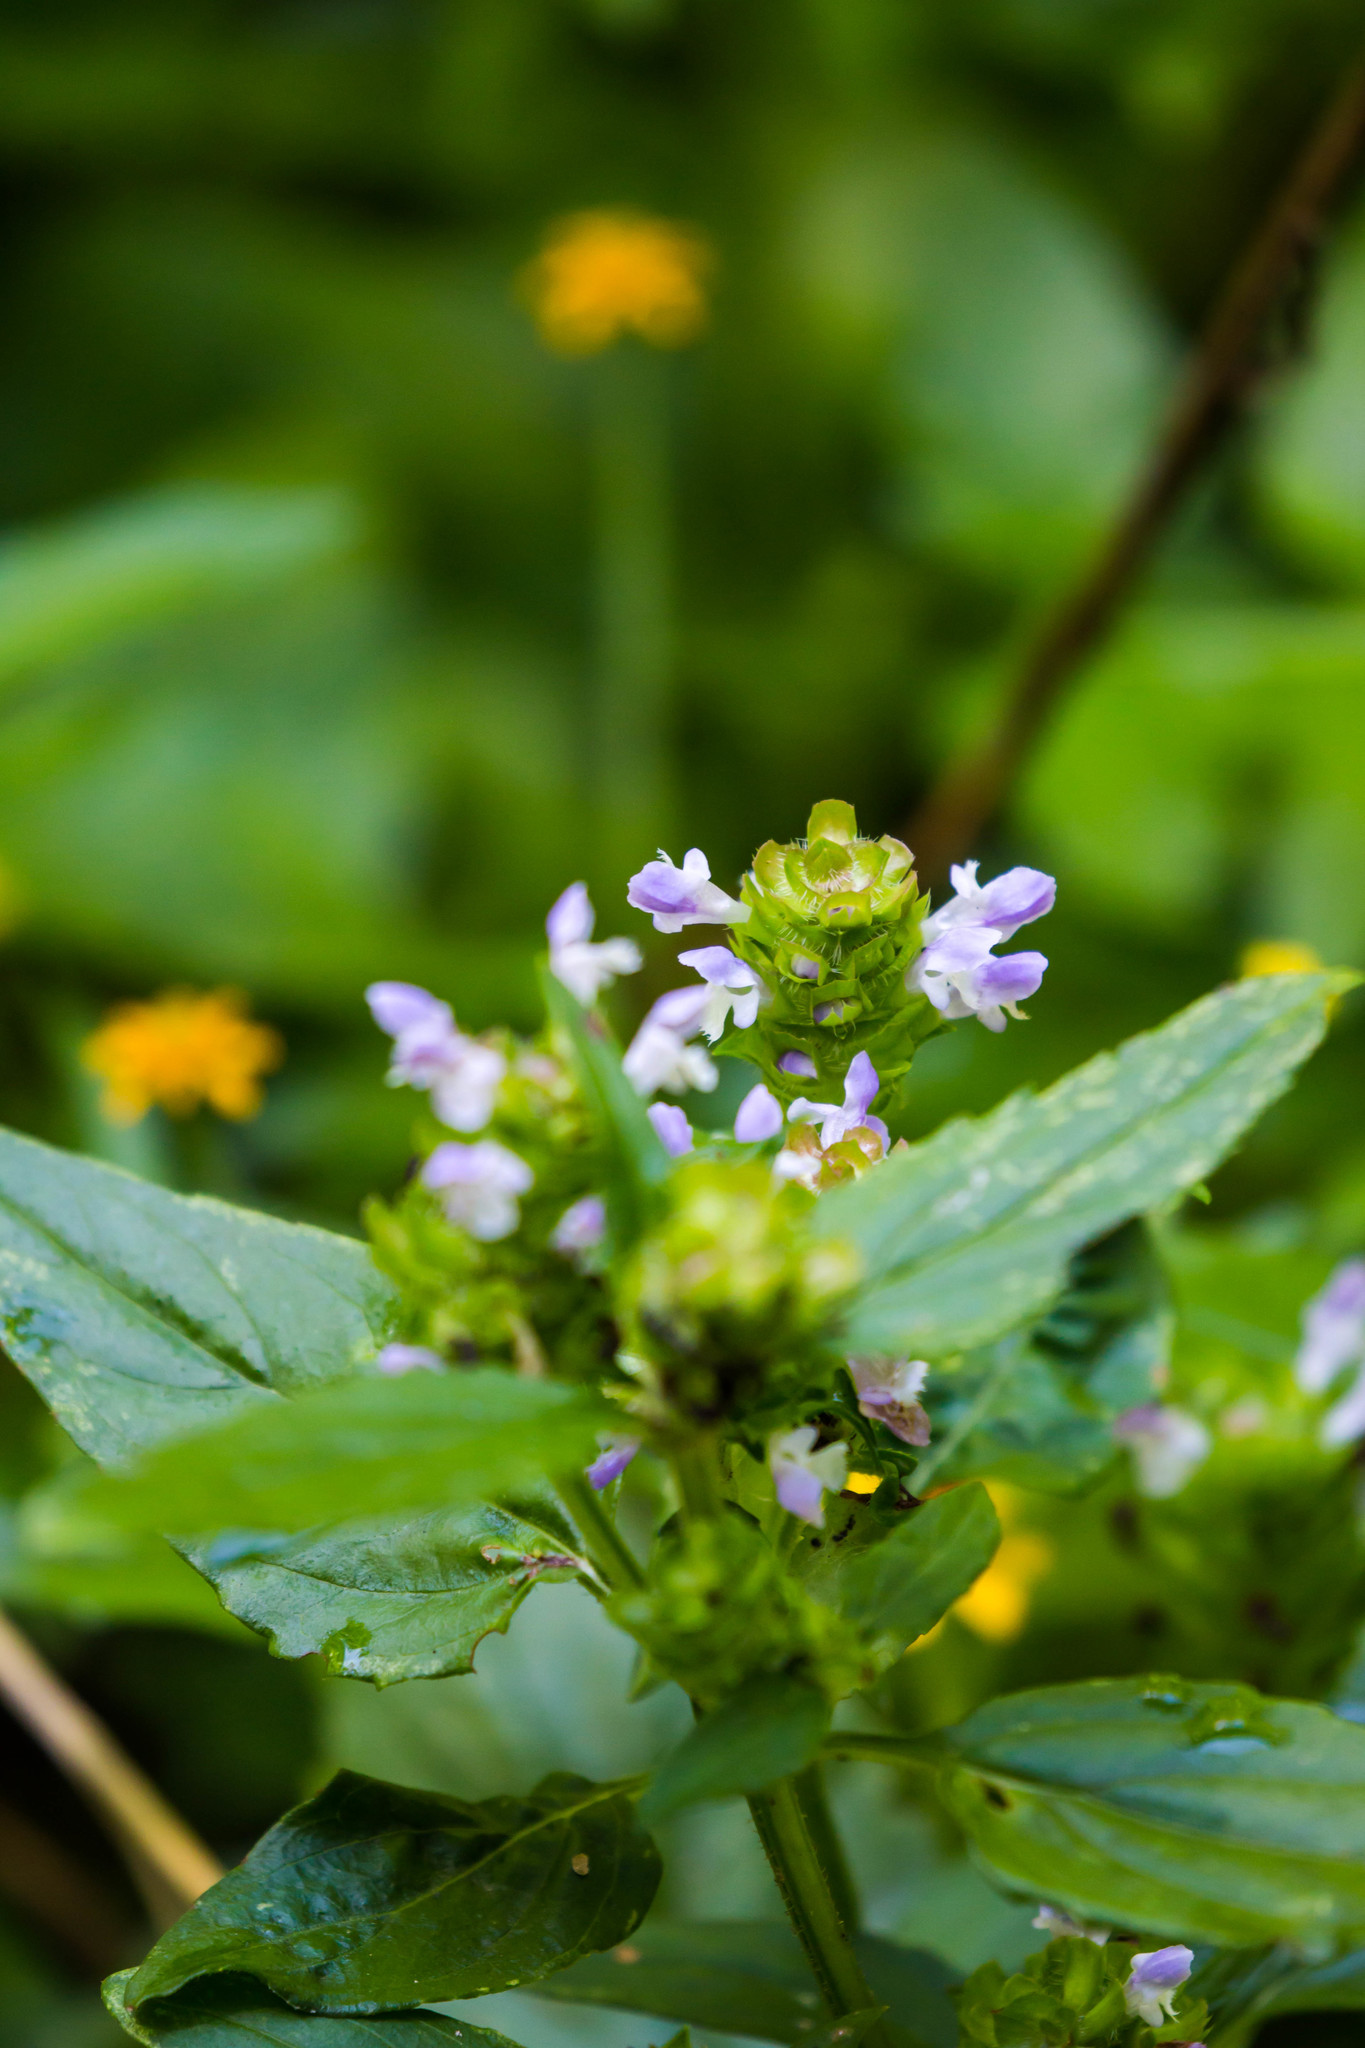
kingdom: Plantae
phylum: Tracheophyta
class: Magnoliopsida
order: Lamiales
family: Lamiaceae
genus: Prunella
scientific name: Prunella vulgaris
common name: Heal-all
